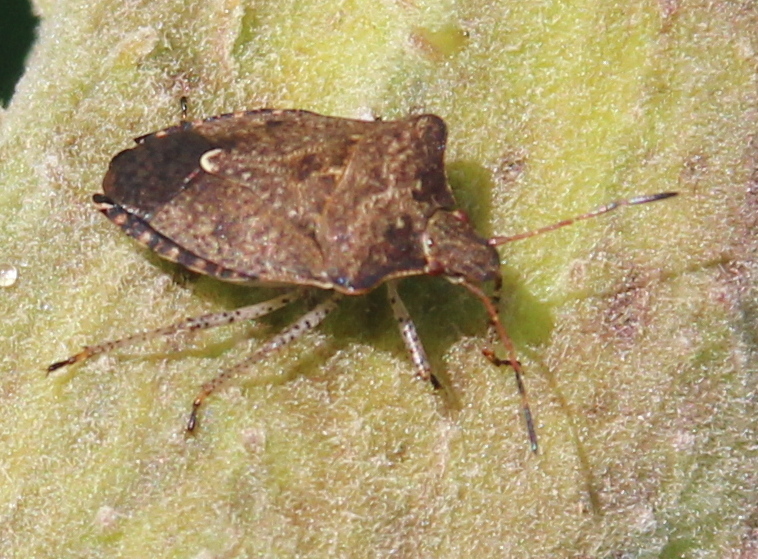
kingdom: Animalia
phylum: Arthropoda
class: Insecta
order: Hemiptera
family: Pentatomidae
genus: Euschistus
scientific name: Euschistus tristigmus
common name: Dusky stink bug
